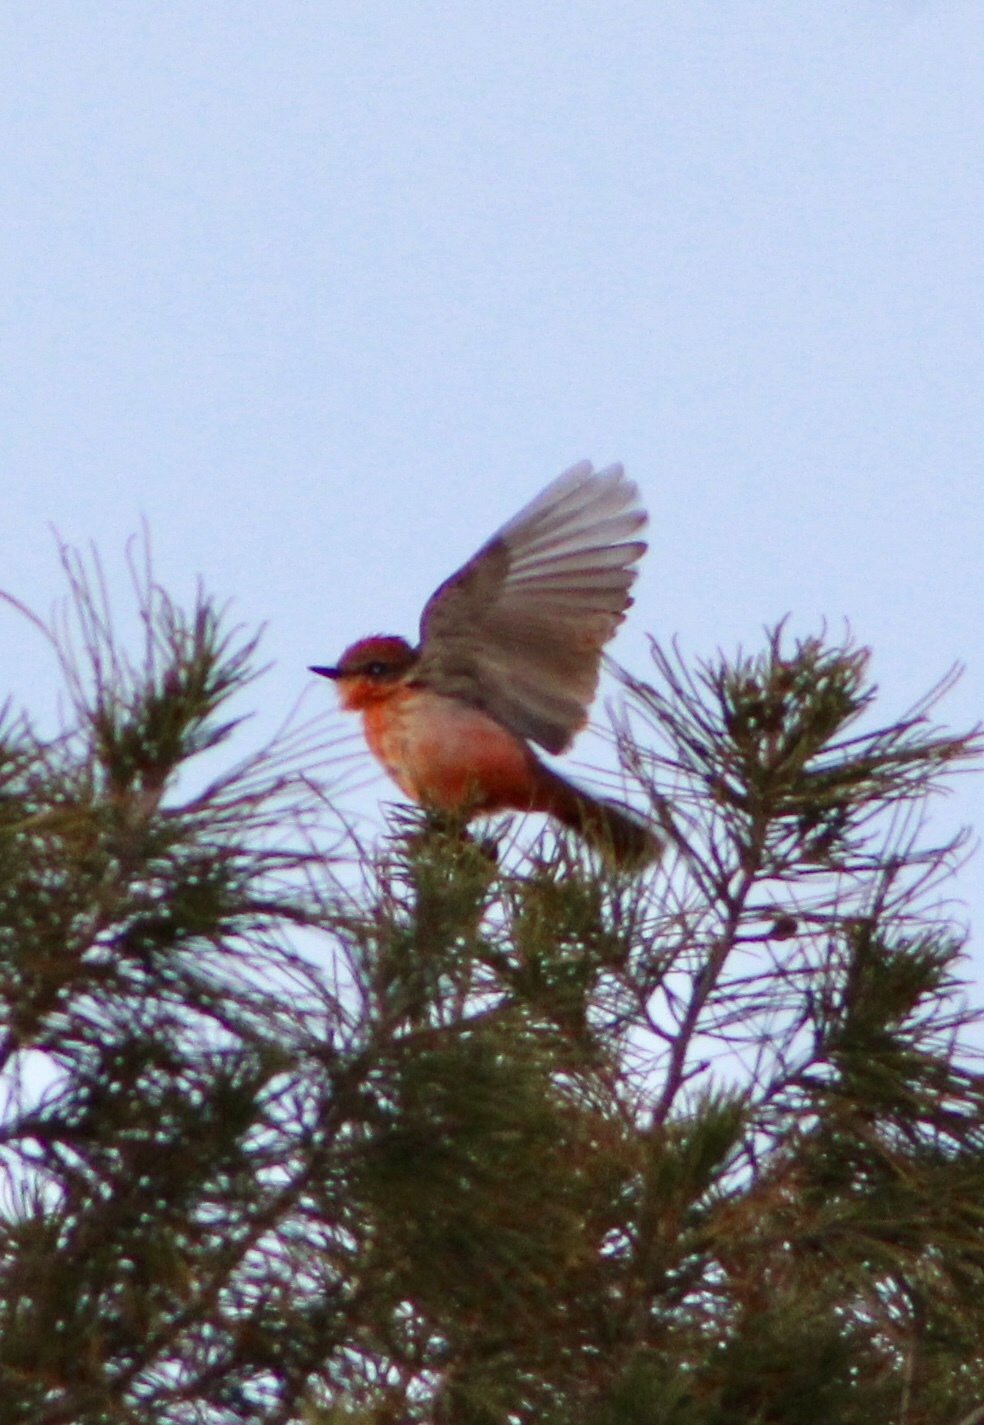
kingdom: Animalia
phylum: Chordata
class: Aves
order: Passeriformes
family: Tyrannidae
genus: Pyrocephalus
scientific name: Pyrocephalus rubinus
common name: Vermilion flycatcher
